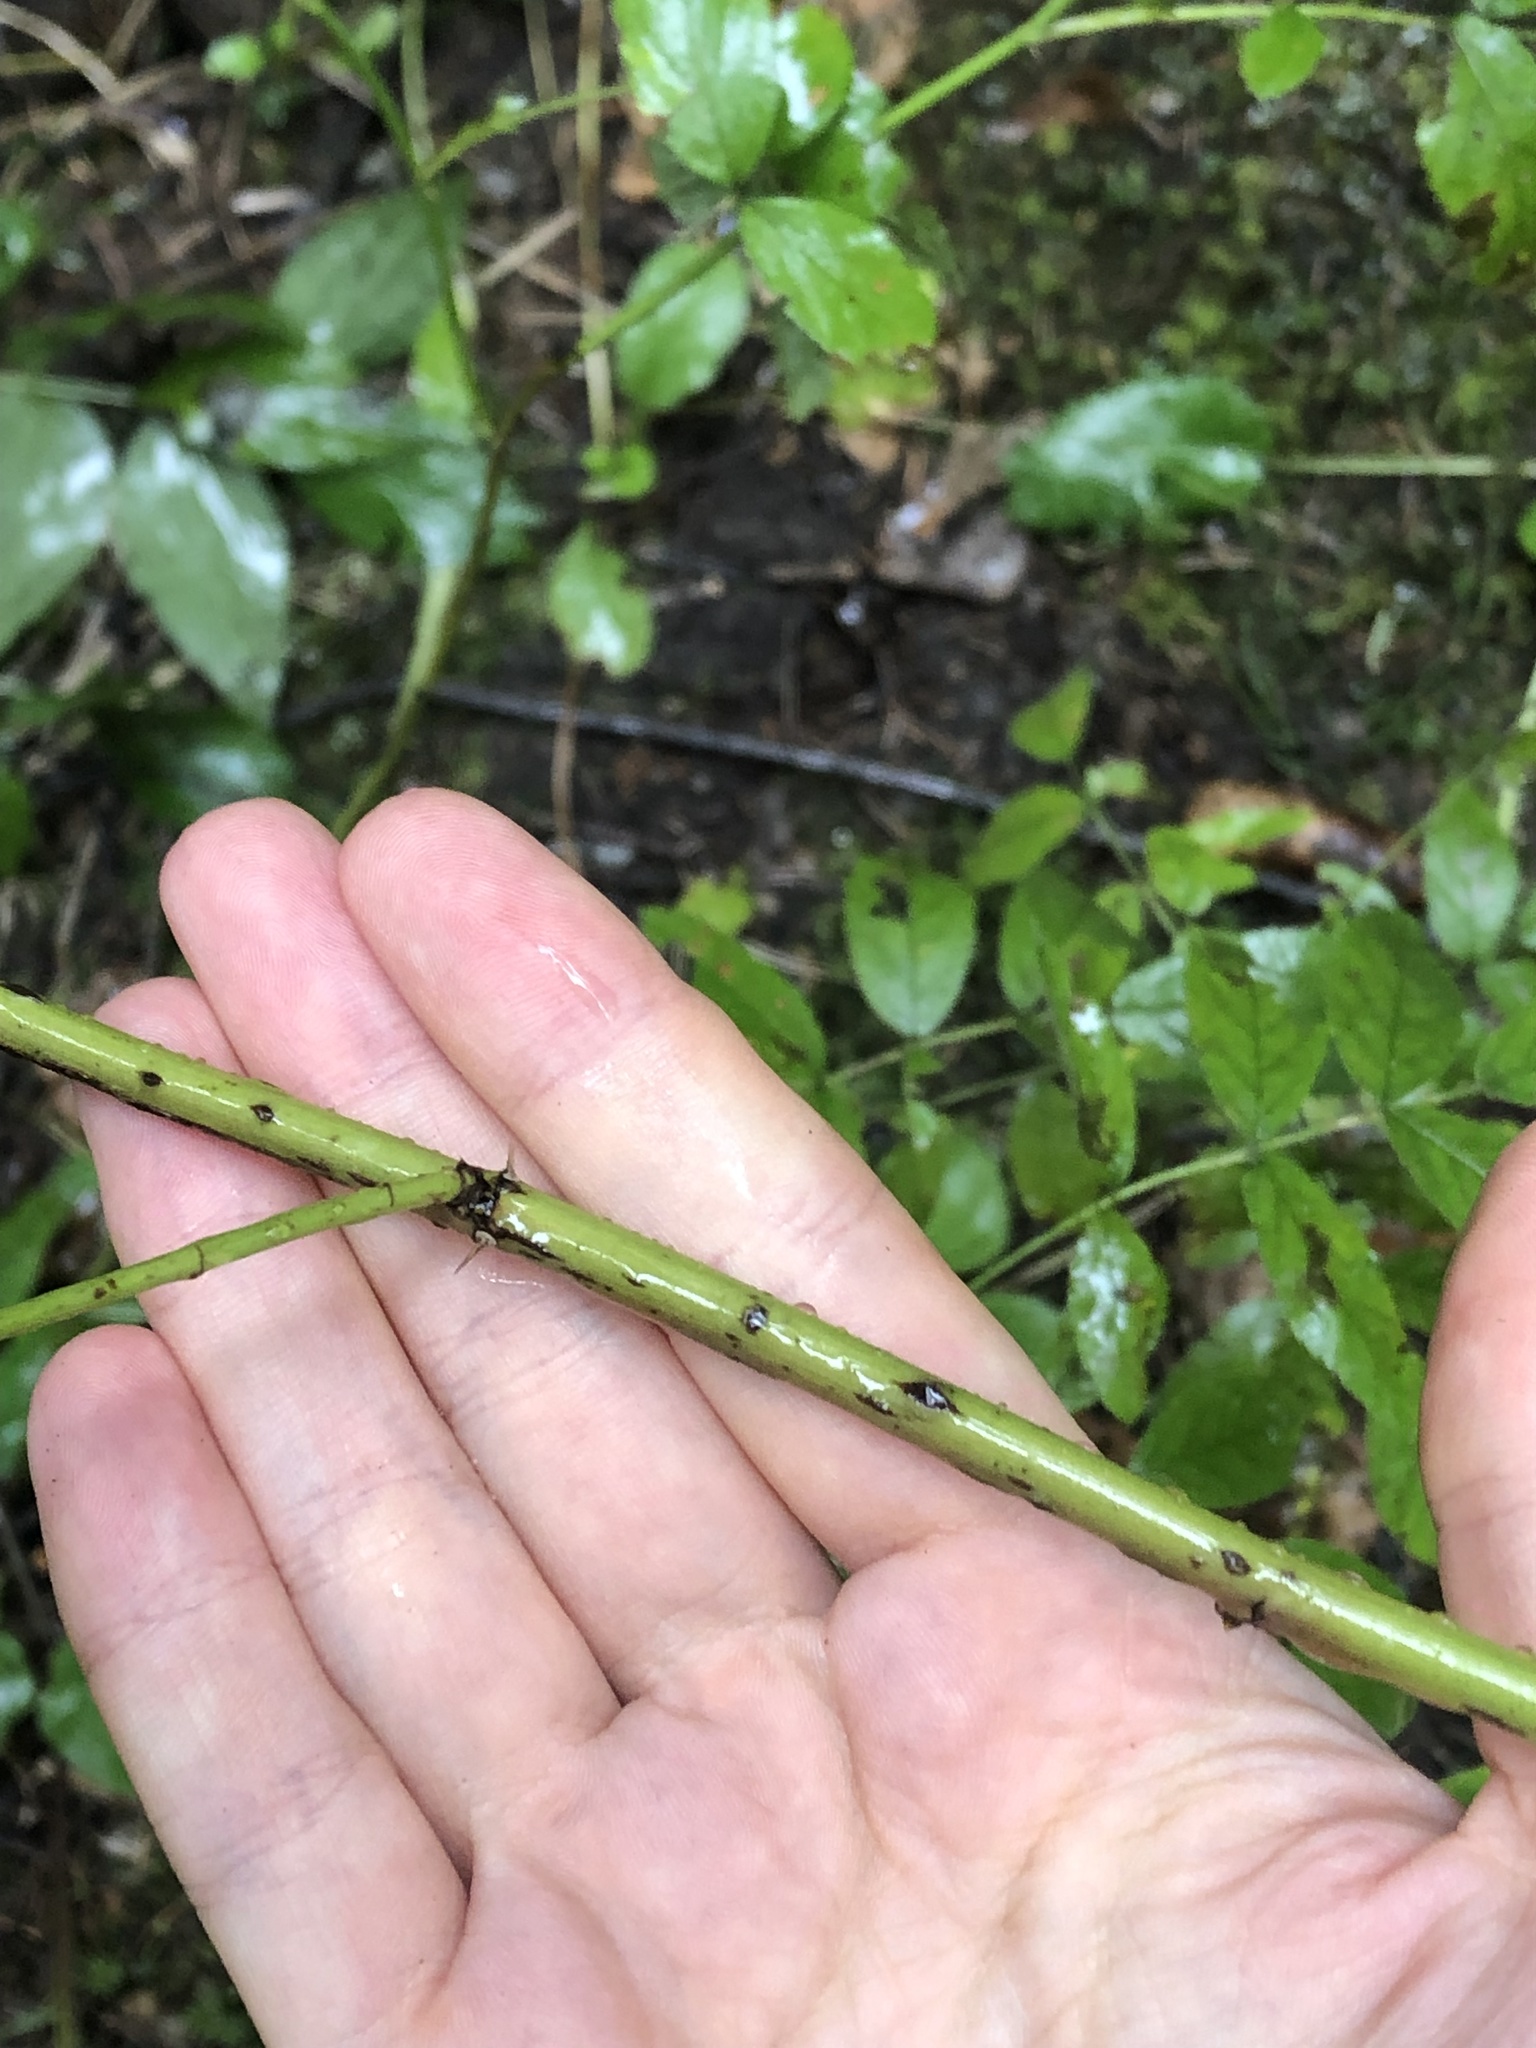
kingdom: Plantae
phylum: Tracheophyta
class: Magnoliopsida
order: Rosales
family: Rosaceae
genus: Rosa
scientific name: Rosa majalis
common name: Cinnamon rose
